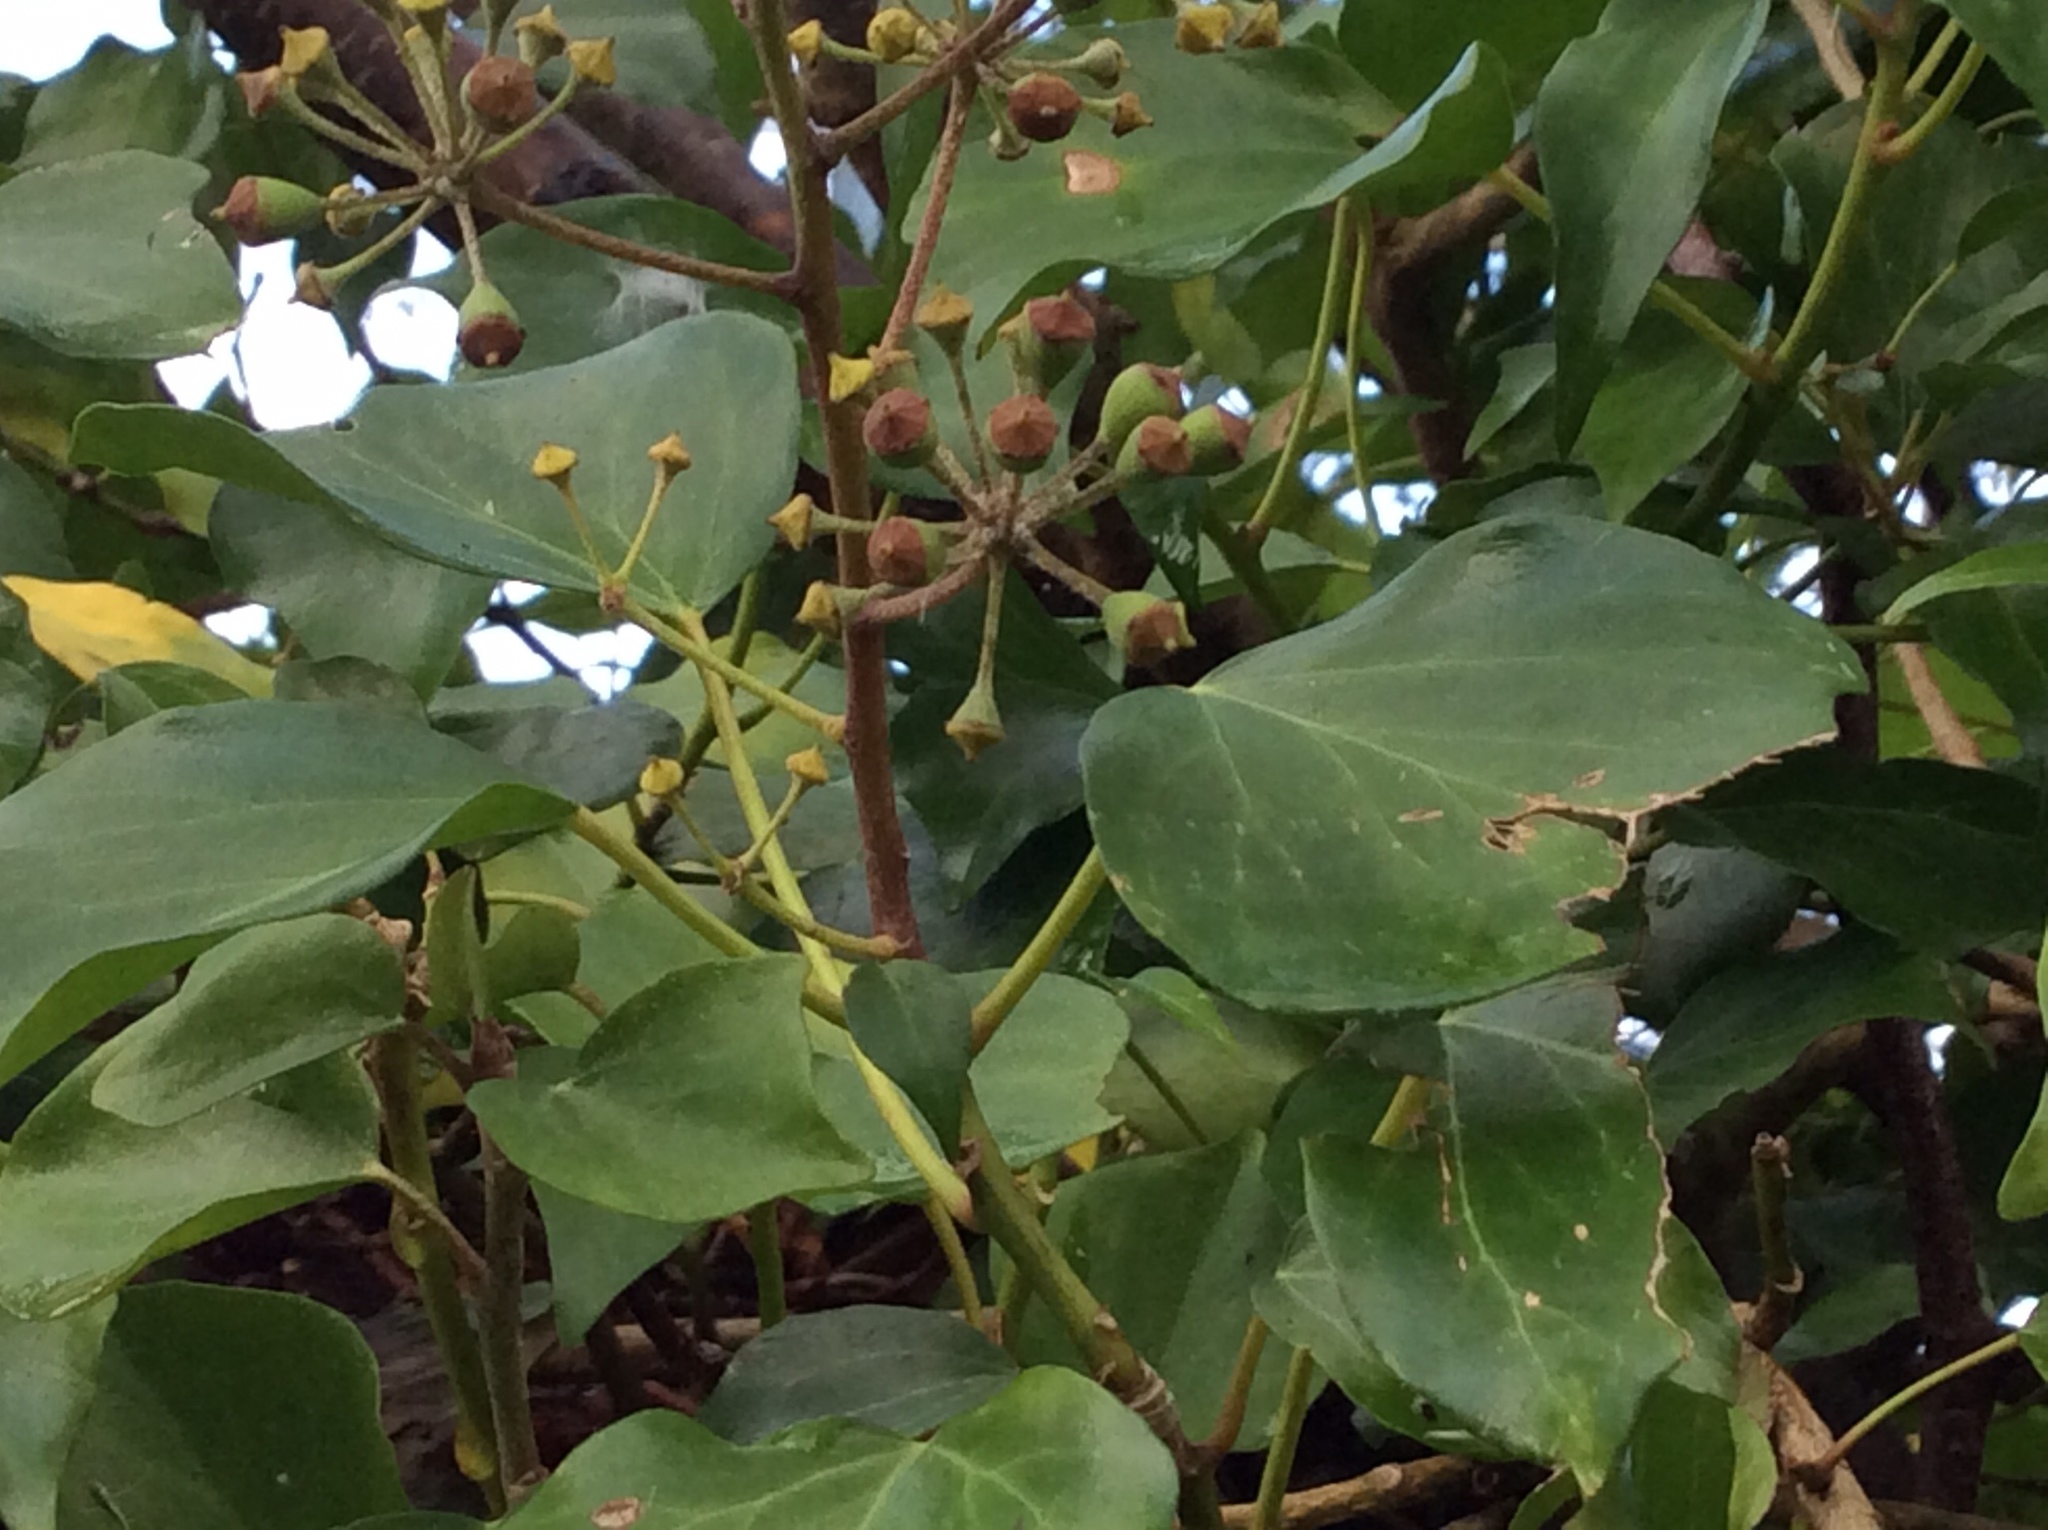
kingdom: Plantae
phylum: Tracheophyta
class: Magnoliopsida
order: Apiales
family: Araliaceae
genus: Hedera
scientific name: Hedera helix
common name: Ivy
